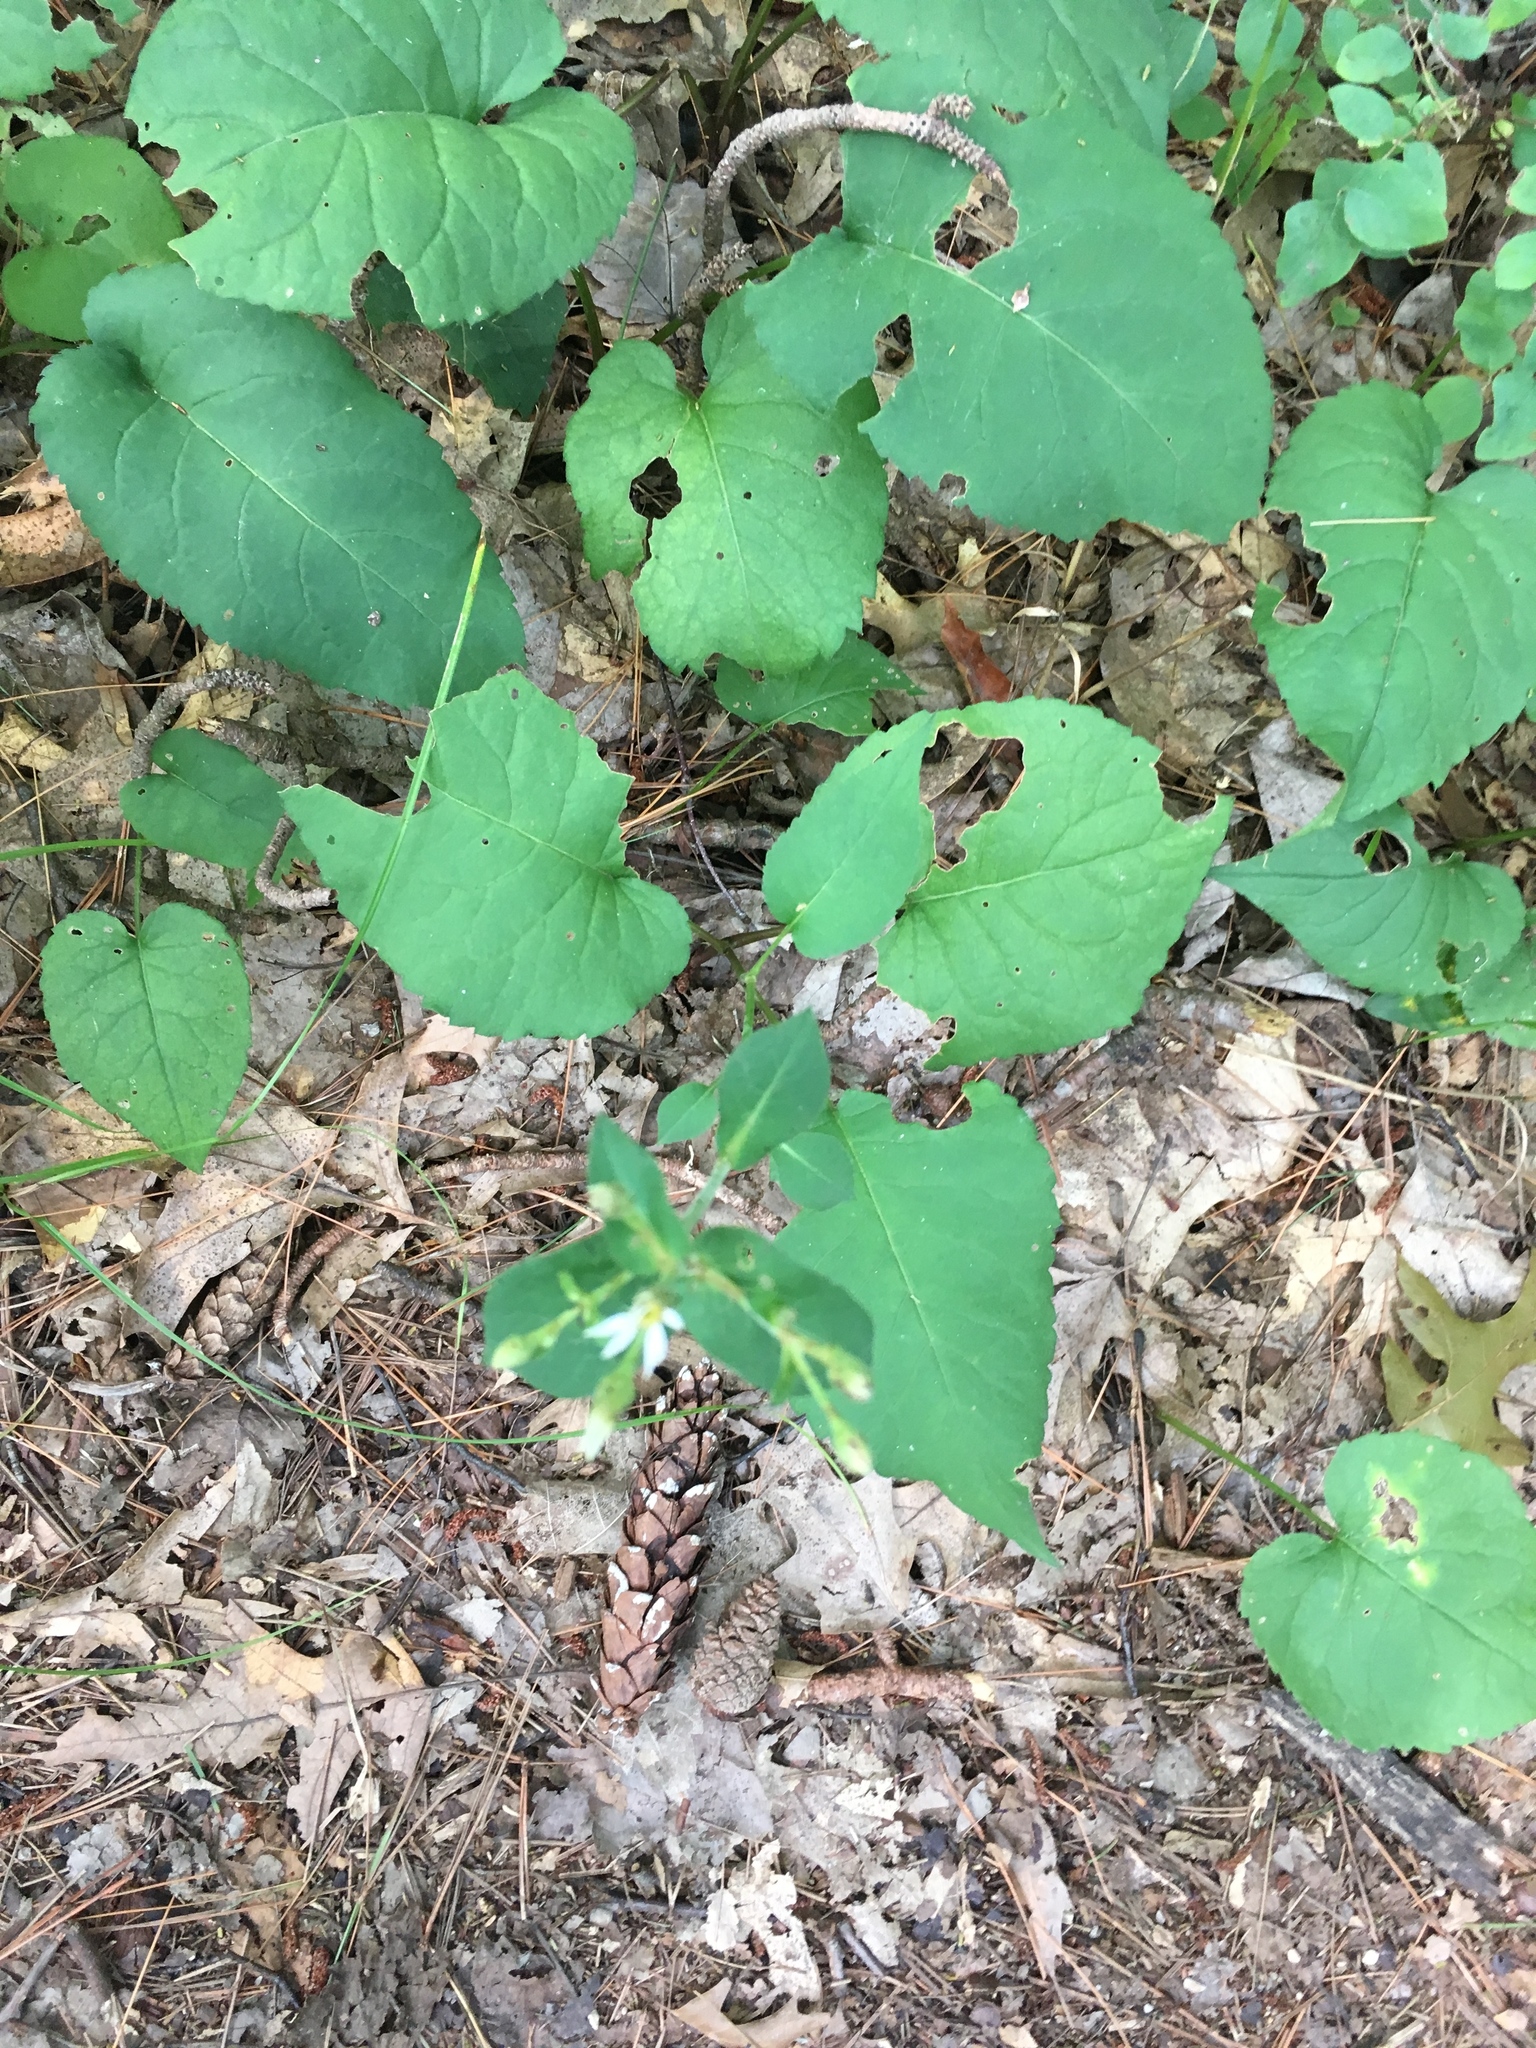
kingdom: Plantae
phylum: Tracheophyta
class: Magnoliopsida
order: Asterales
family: Asteraceae
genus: Eurybia
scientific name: Eurybia macrophylla
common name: Big-leaved aster
